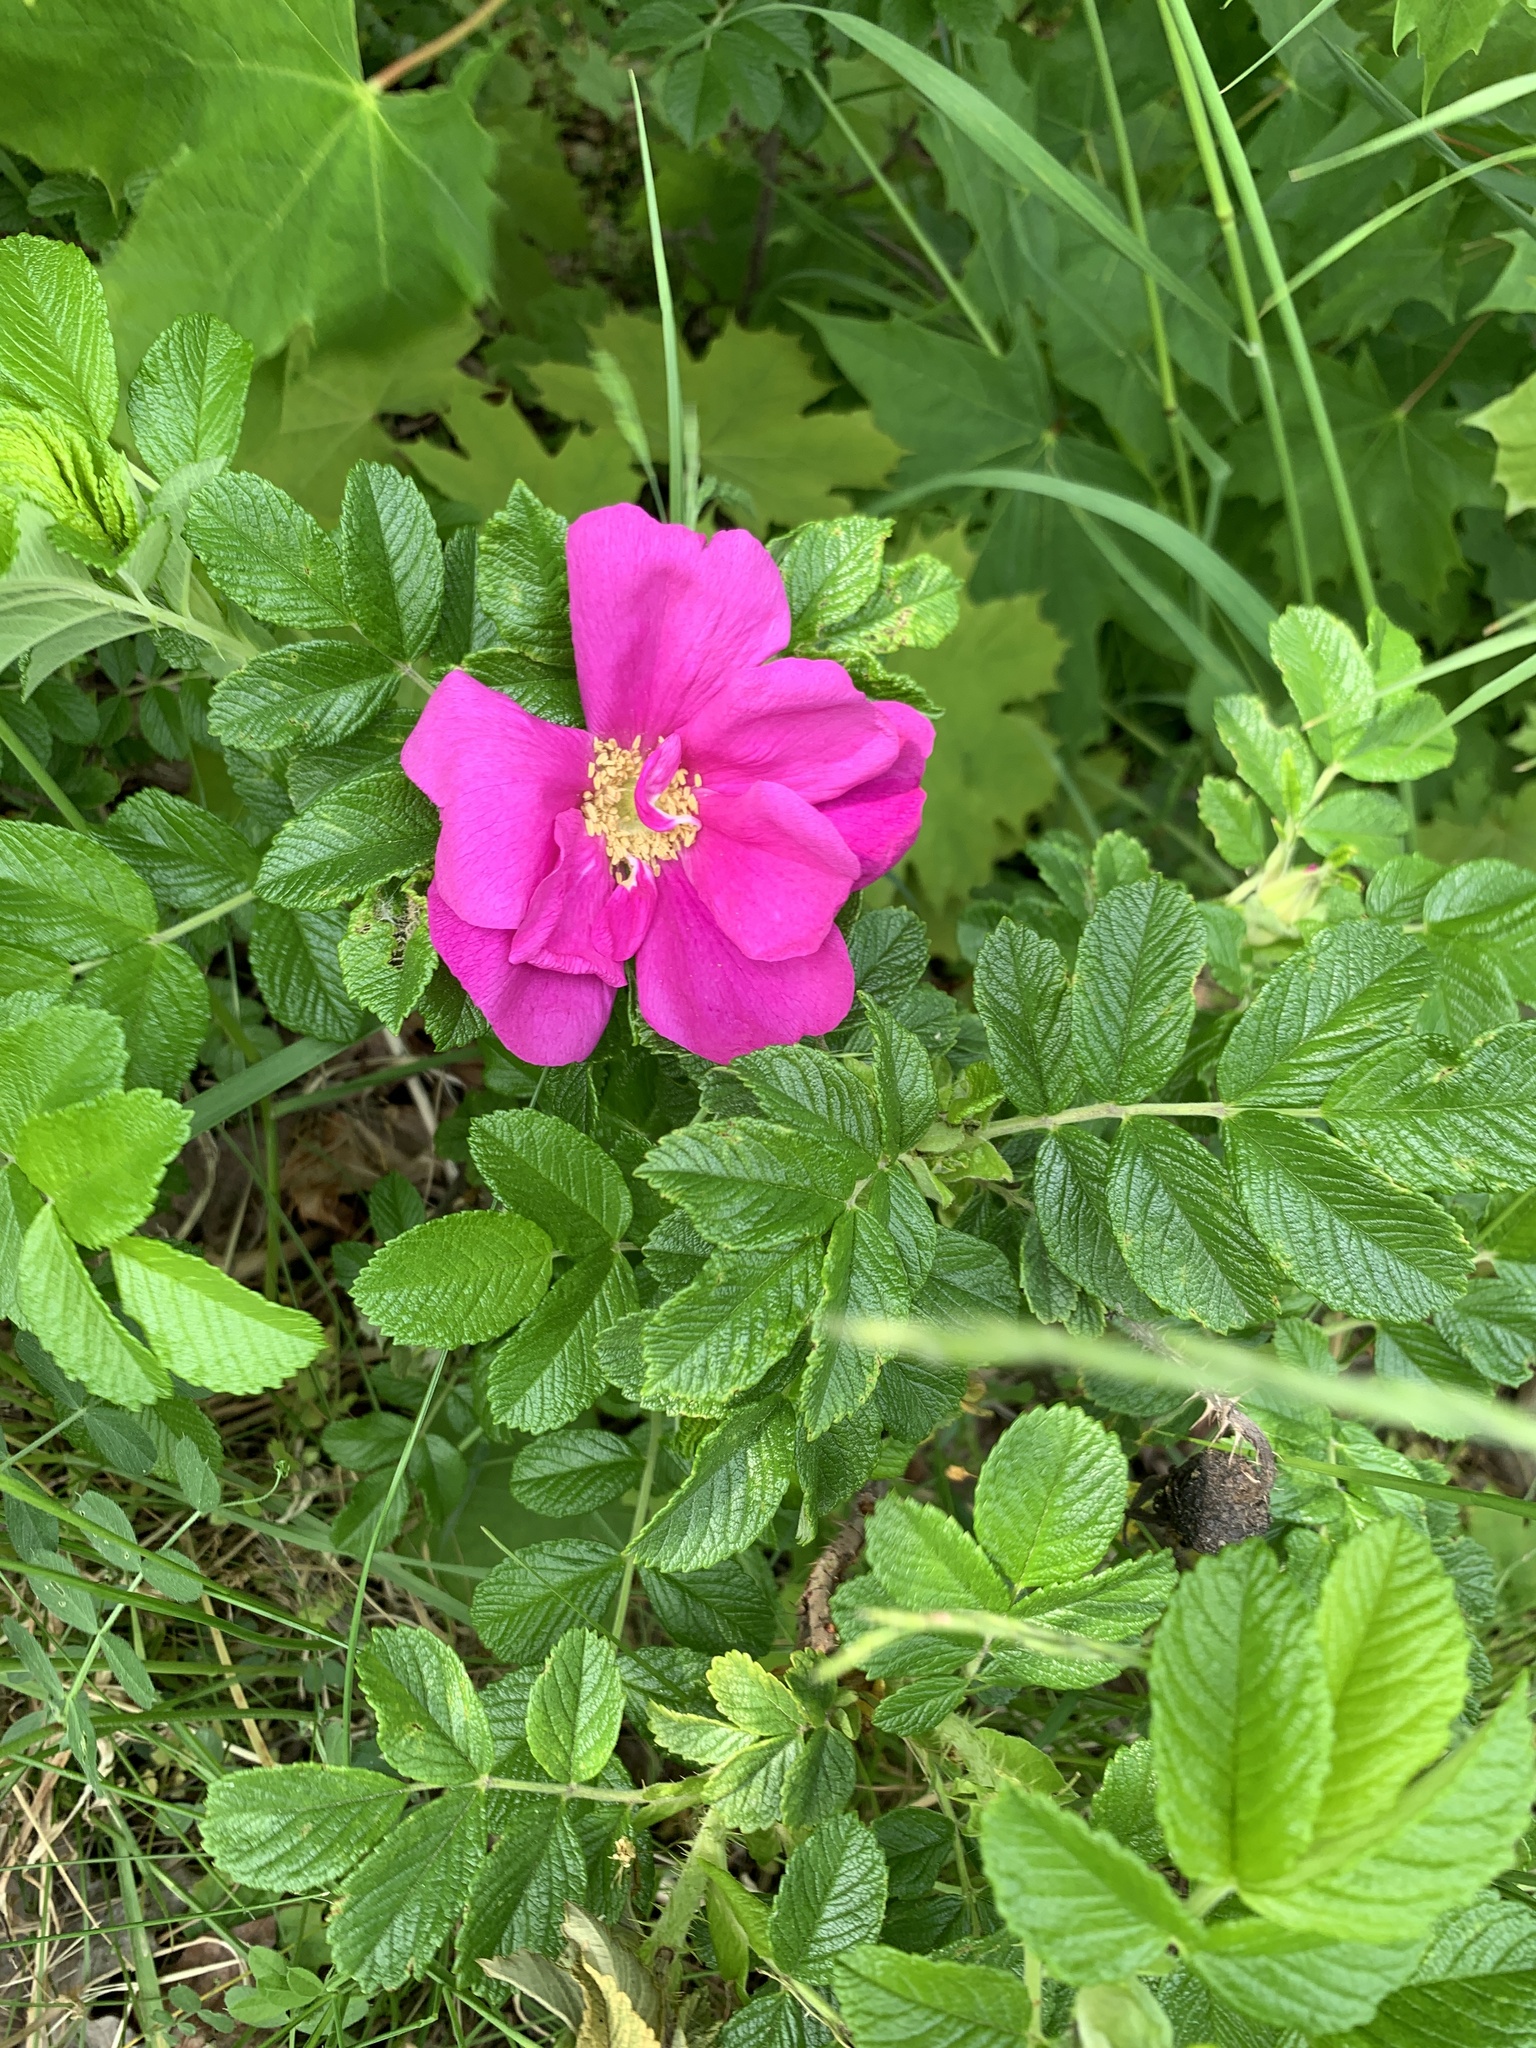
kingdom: Plantae
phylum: Tracheophyta
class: Magnoliopsida
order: Rosales
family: Rosaceae
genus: Rosa
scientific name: Rosa rugosa
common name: Japanese rose
